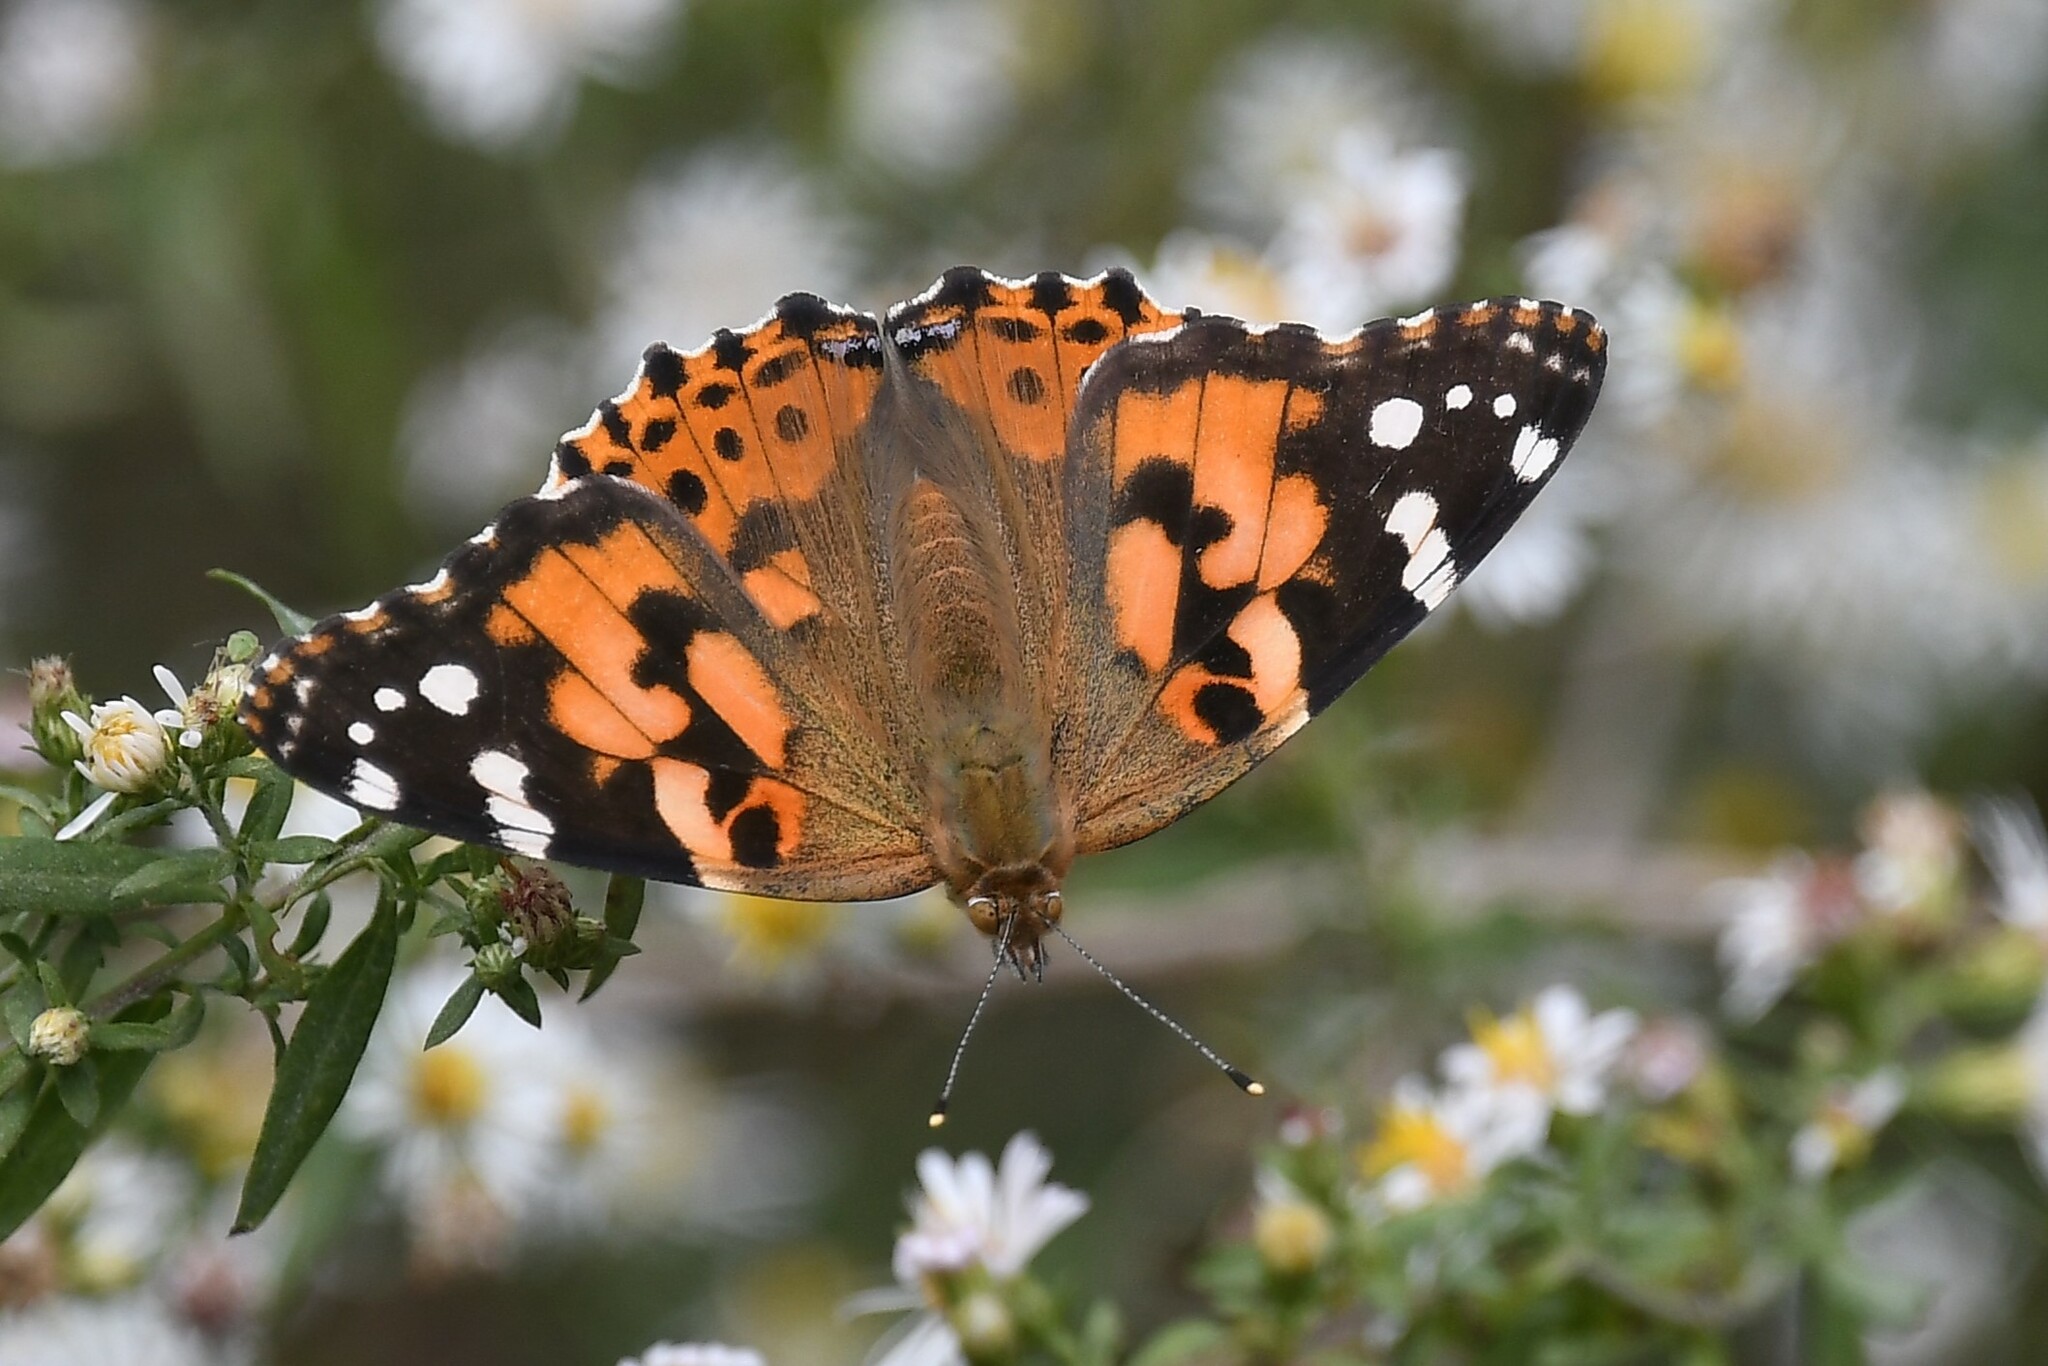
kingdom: Animalia
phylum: Arthropoda
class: Insecta
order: Lepidoptera
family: Nymphalidae
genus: Vanessa
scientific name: Vanessa cardui
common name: Painted lady
